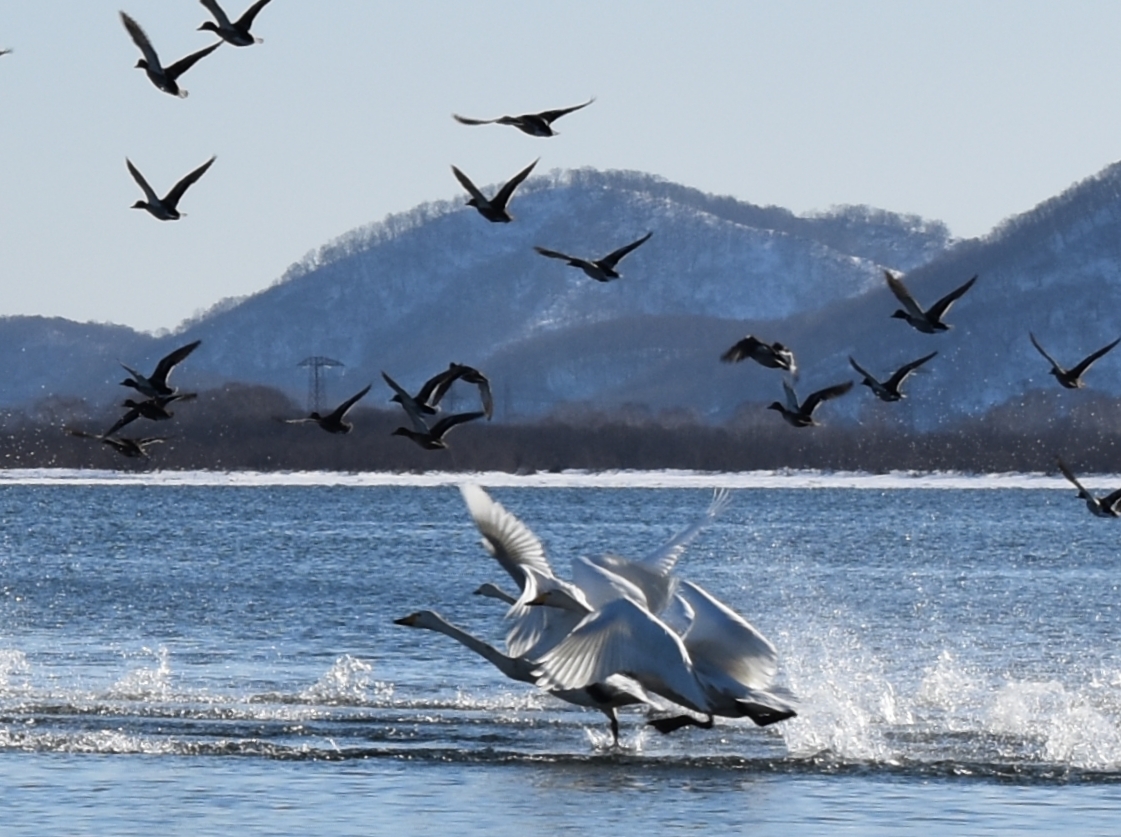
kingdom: Animalia
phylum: Chordata
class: Aves
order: Anseriformes
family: Anatidae
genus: Cygnus
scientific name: Cygnus cygnus
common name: Whooper swan
